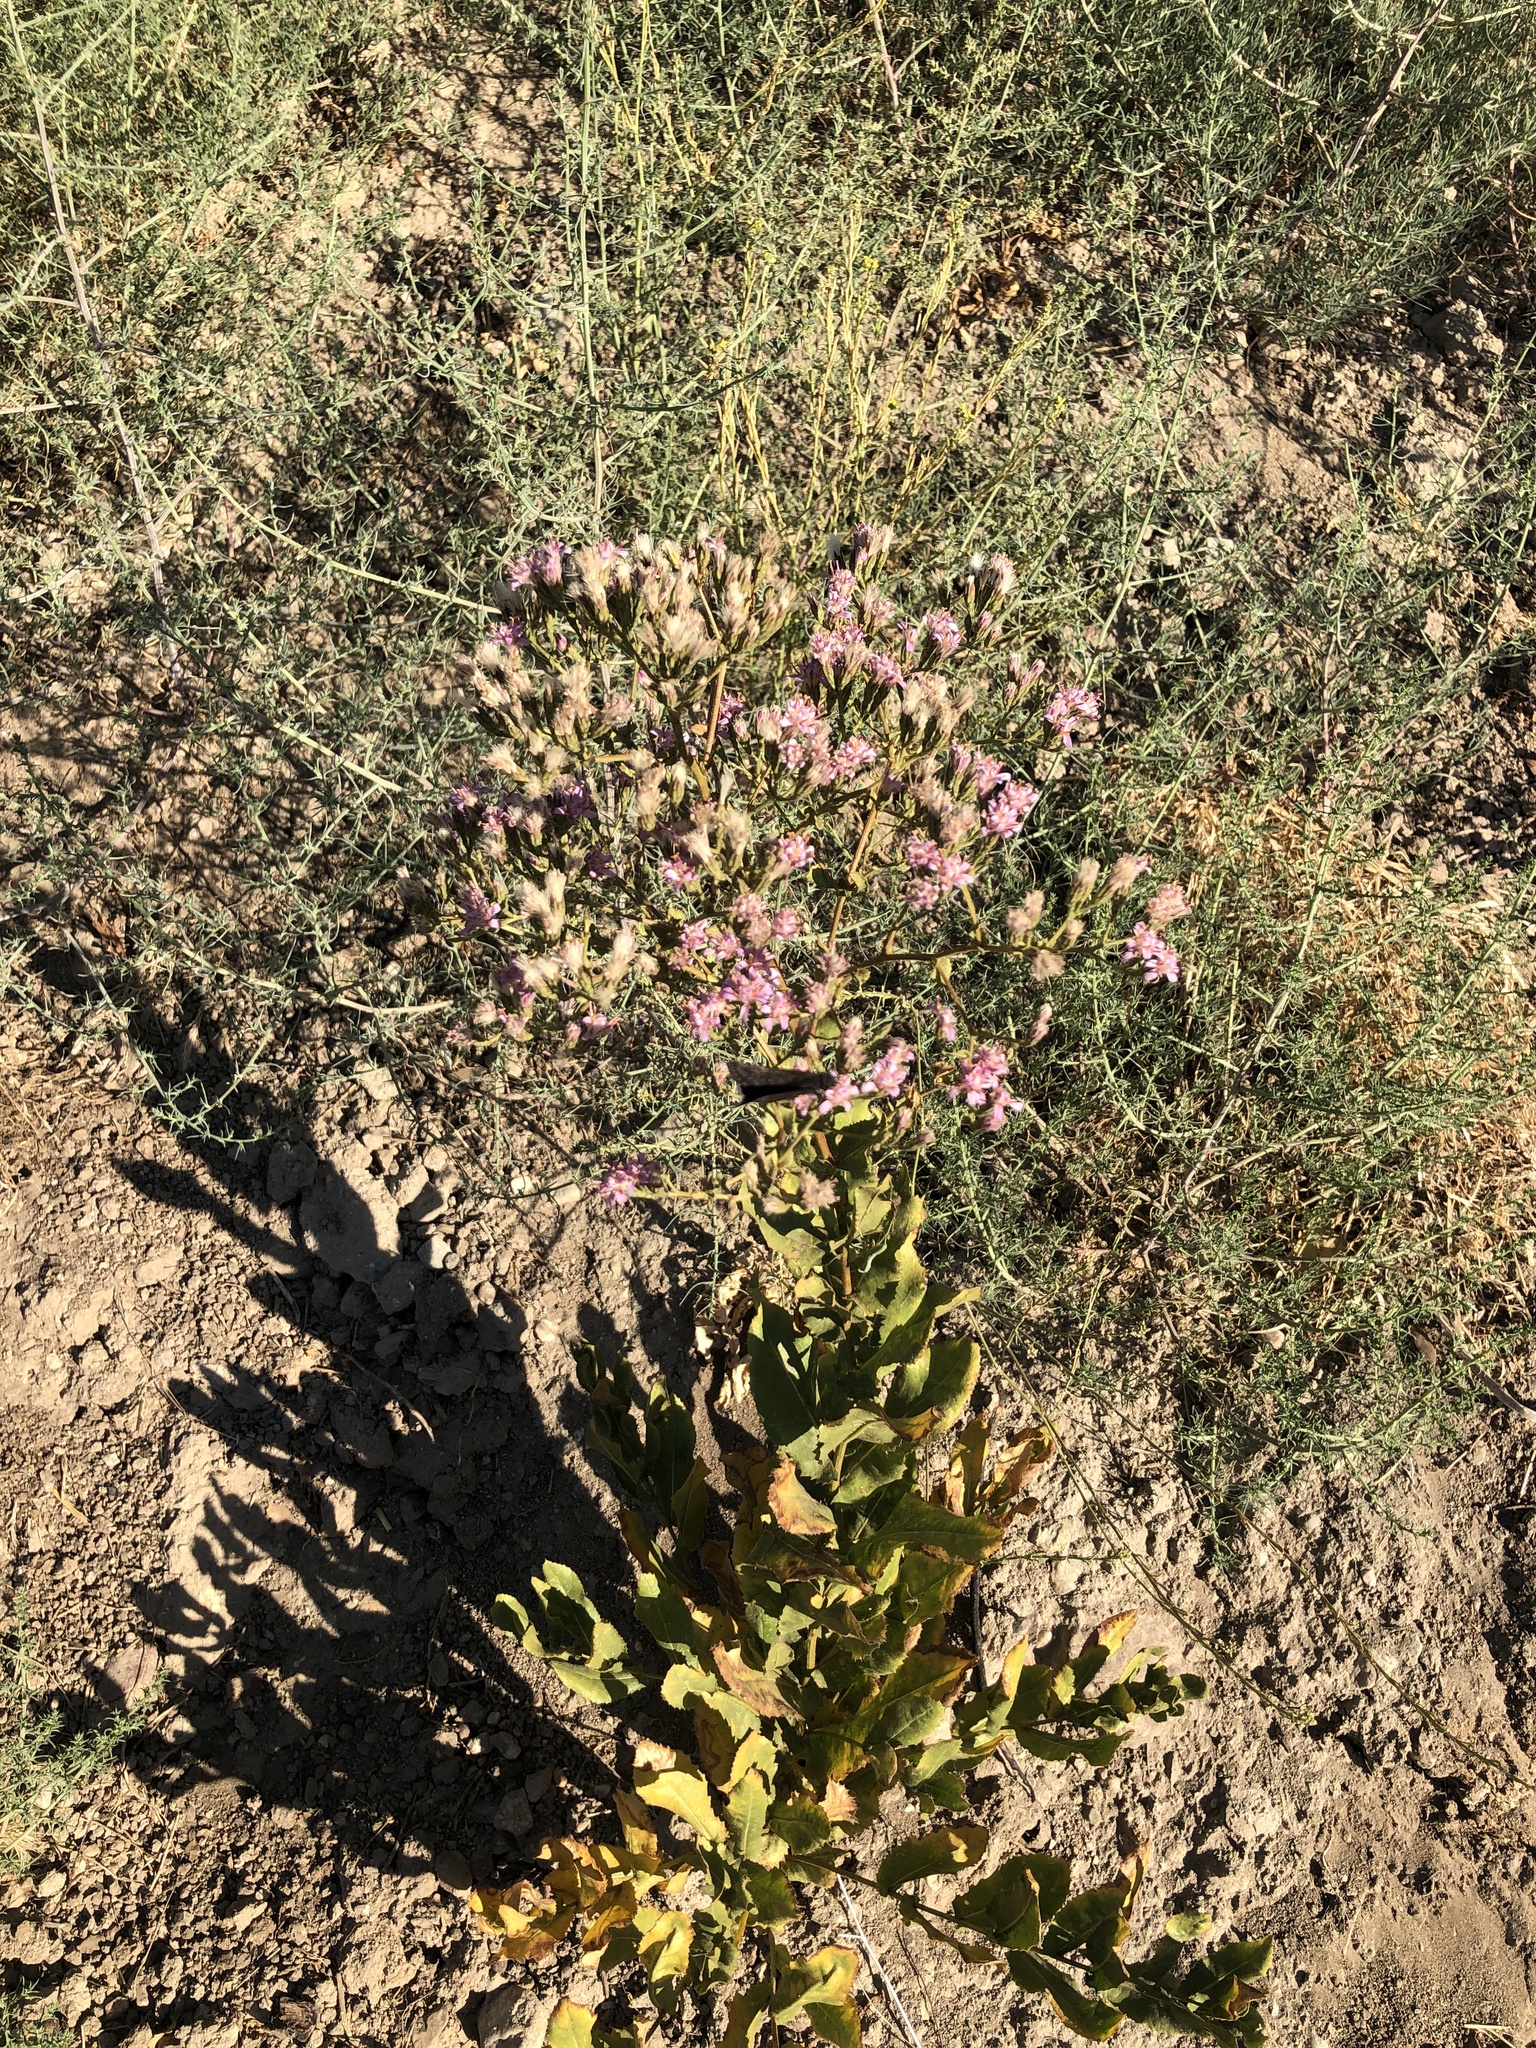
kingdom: Plantae
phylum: Tracheophyta
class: Magnoliopsida
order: Asterales
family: Asteraceae
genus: Acourtia
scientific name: Acourtia microcephala
